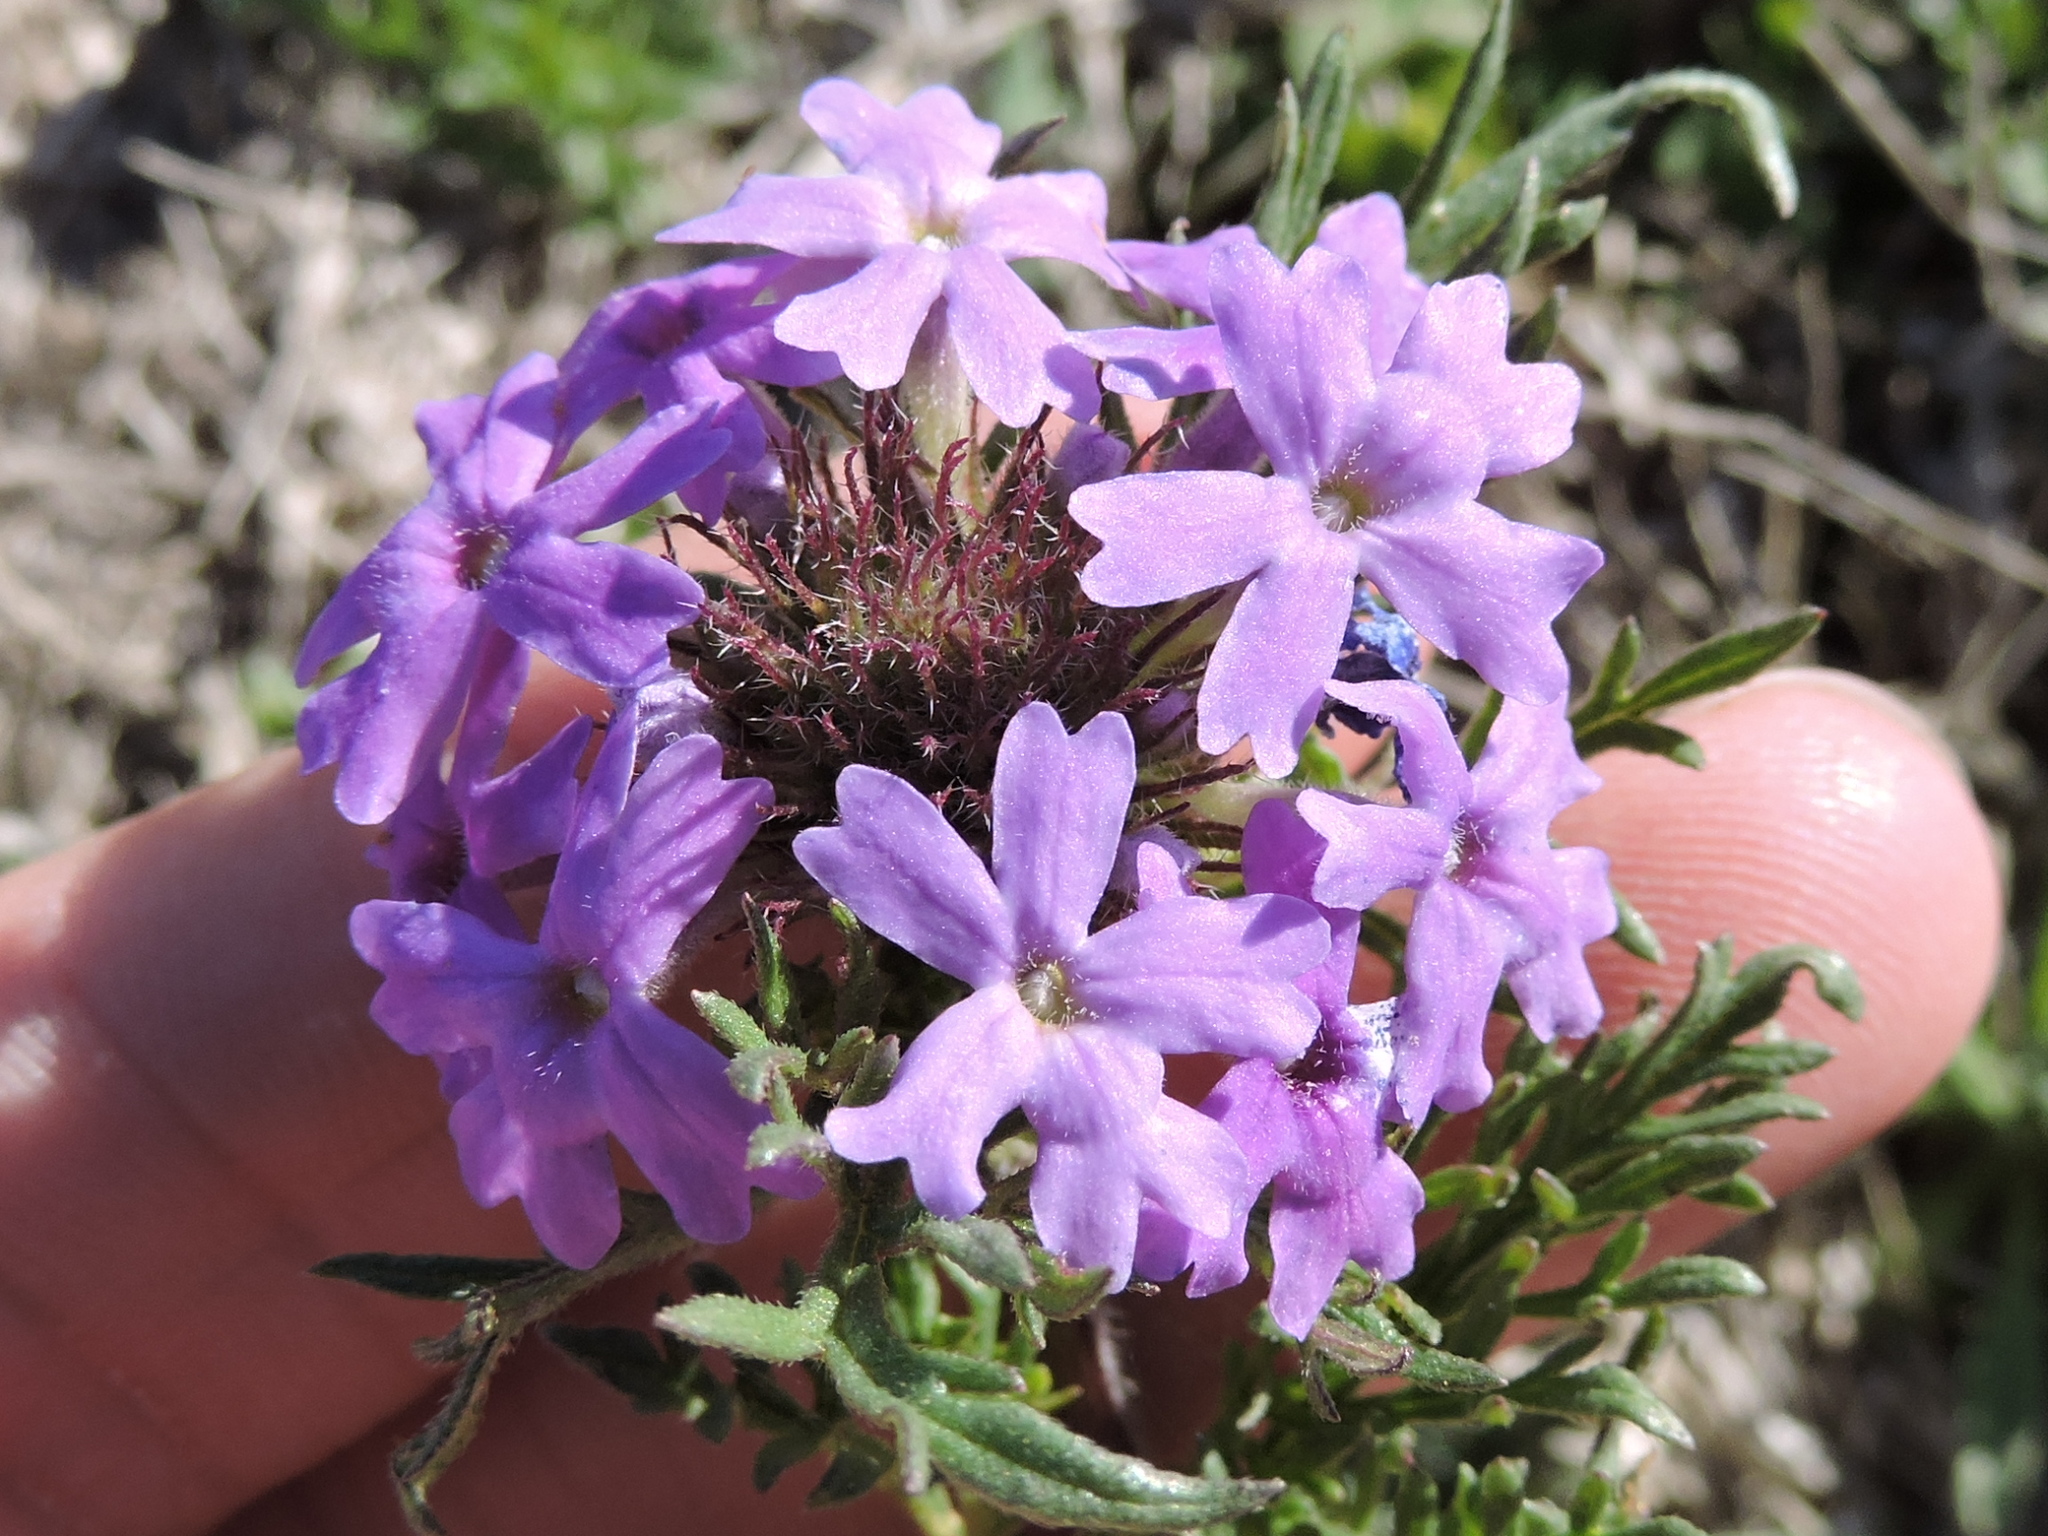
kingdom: Plantae
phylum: Tracheophyta
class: Magnoliopsida
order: Lamiales
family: Verbenaceae
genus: Verbena
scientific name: Verbena bipinnatifida
